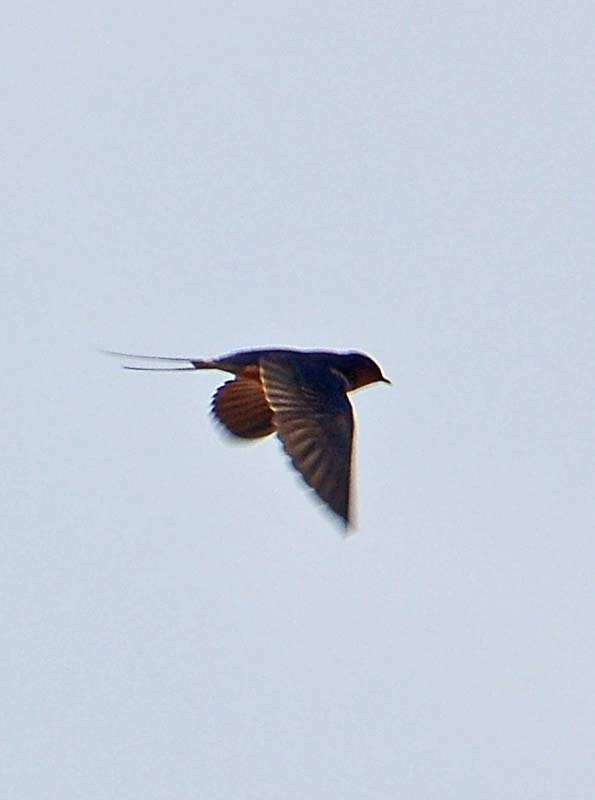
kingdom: Animalia
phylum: Chordata
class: Aves
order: Passeriformes
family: Hirundinidae
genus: Hirundo
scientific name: Hirundo rustica
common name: Barn swallow
